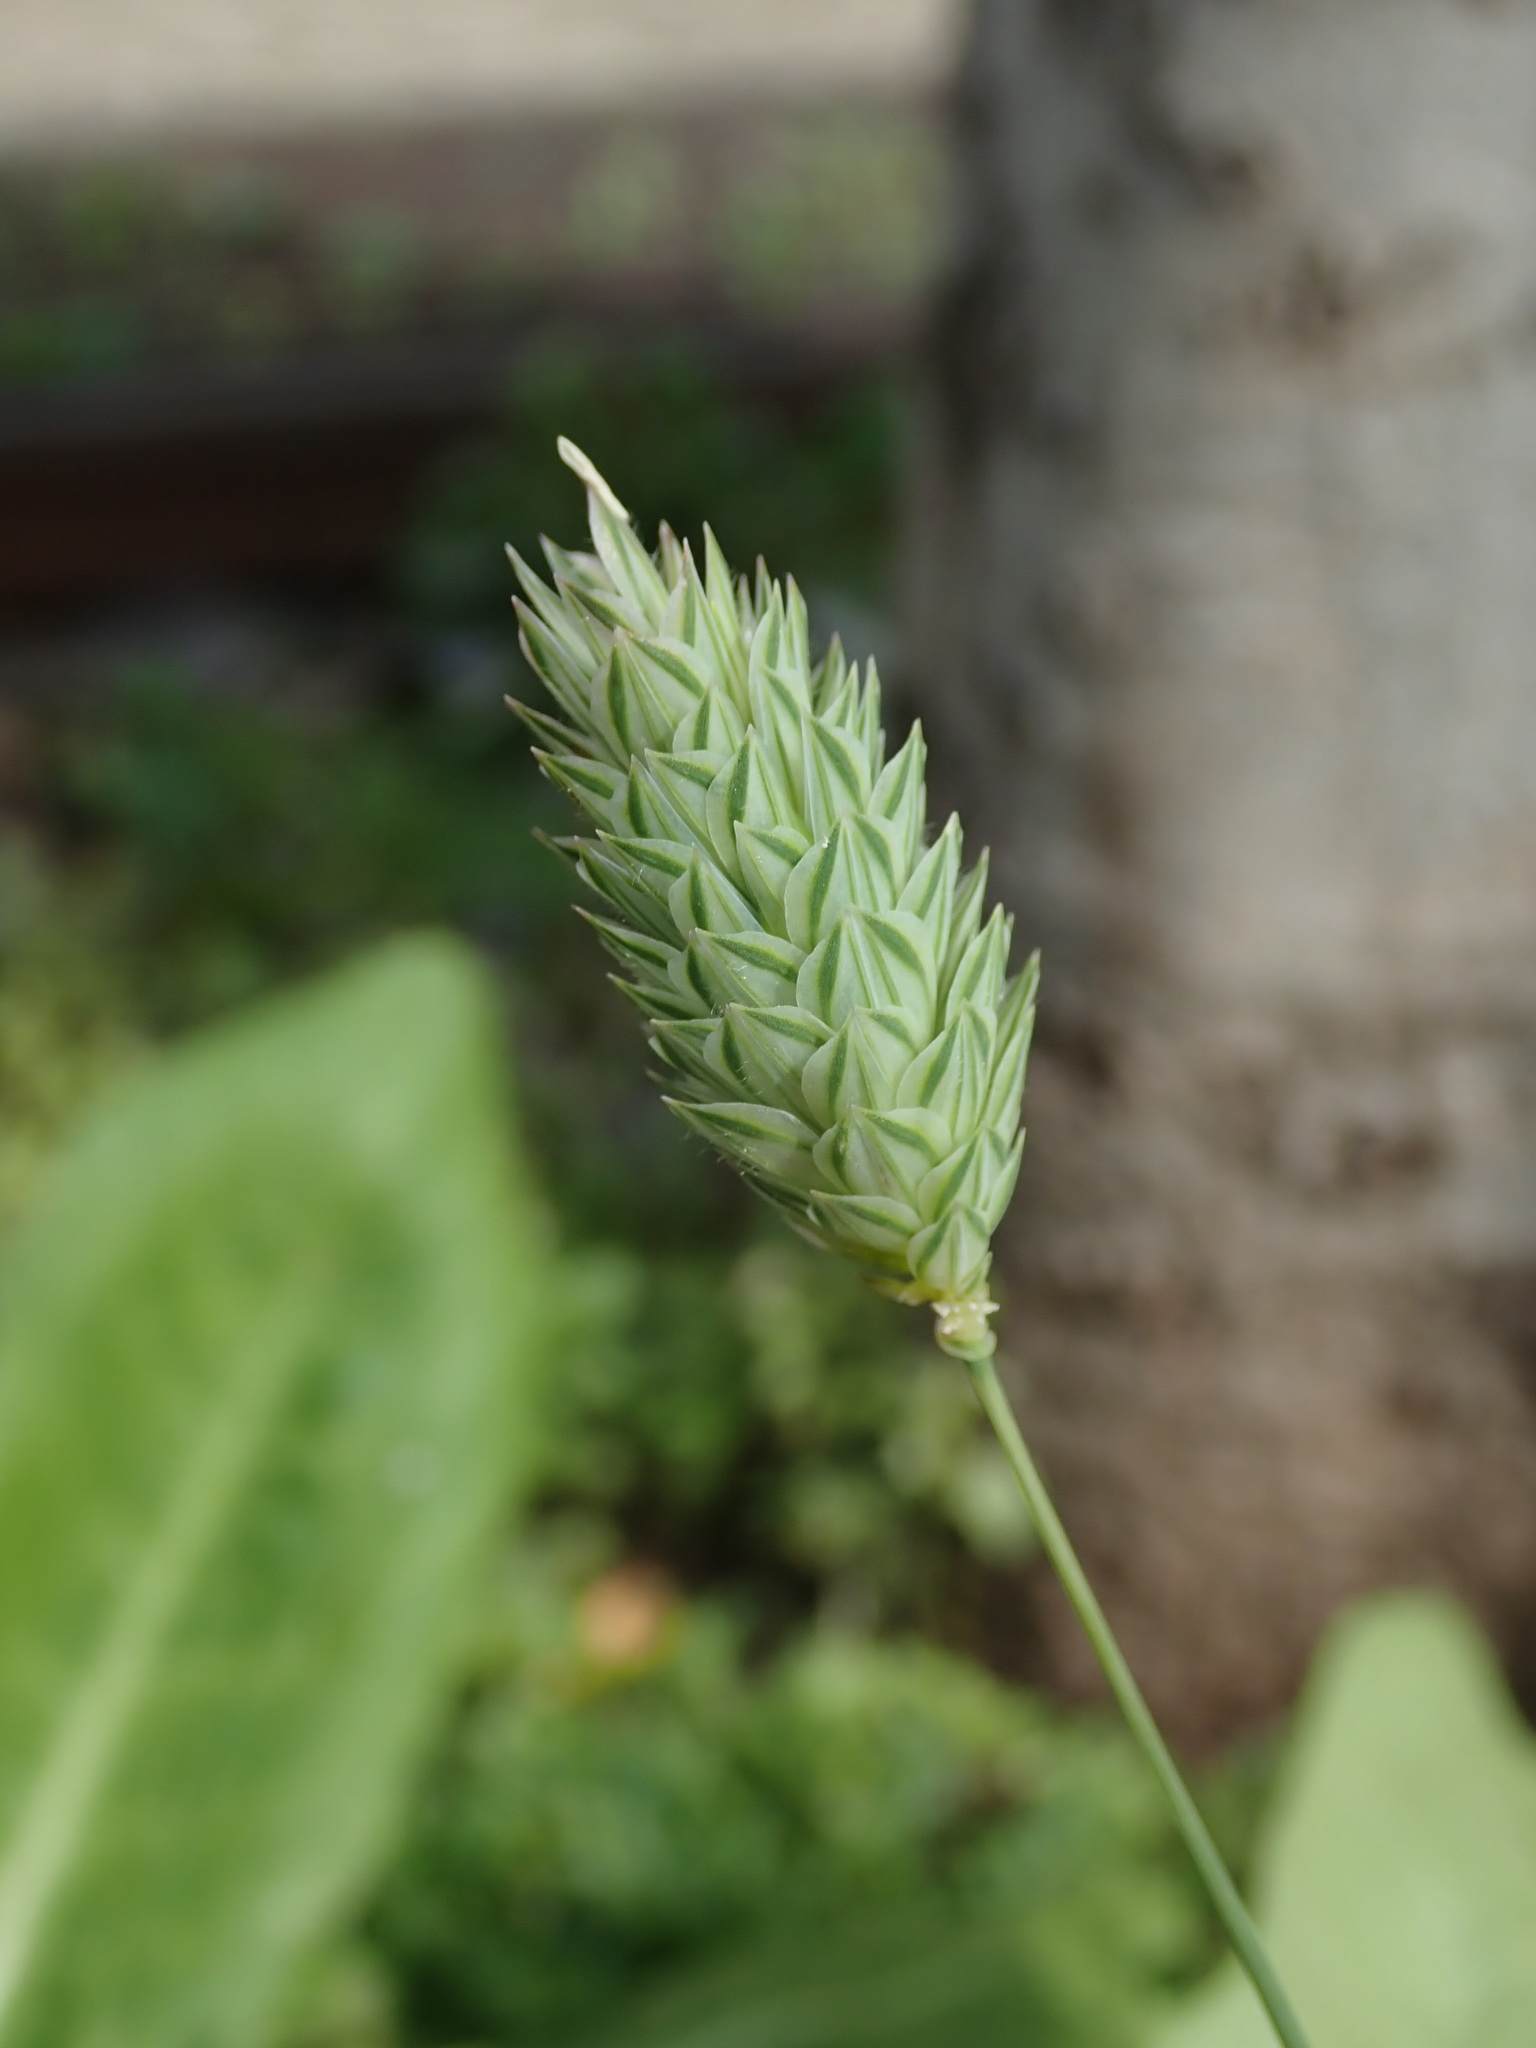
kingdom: Plantae
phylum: Tracheophyta
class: Liliopsida
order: Poales
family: Poaceae
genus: Phalaris
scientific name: Phalaris canariensis
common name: Annual canarygrass
